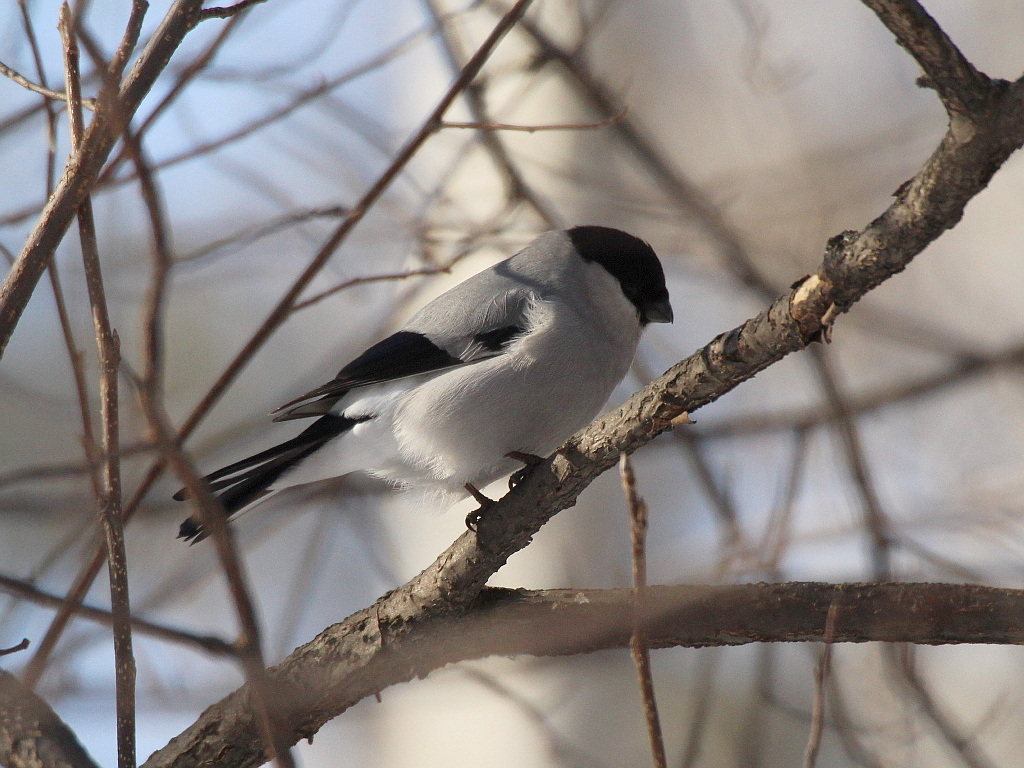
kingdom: Animalia
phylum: Chordata
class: Aves
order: Passeriformes
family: Fringillidae
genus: Pyrrhula
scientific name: Pyrrhula pyrrhula
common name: Eurasian bullfinch
